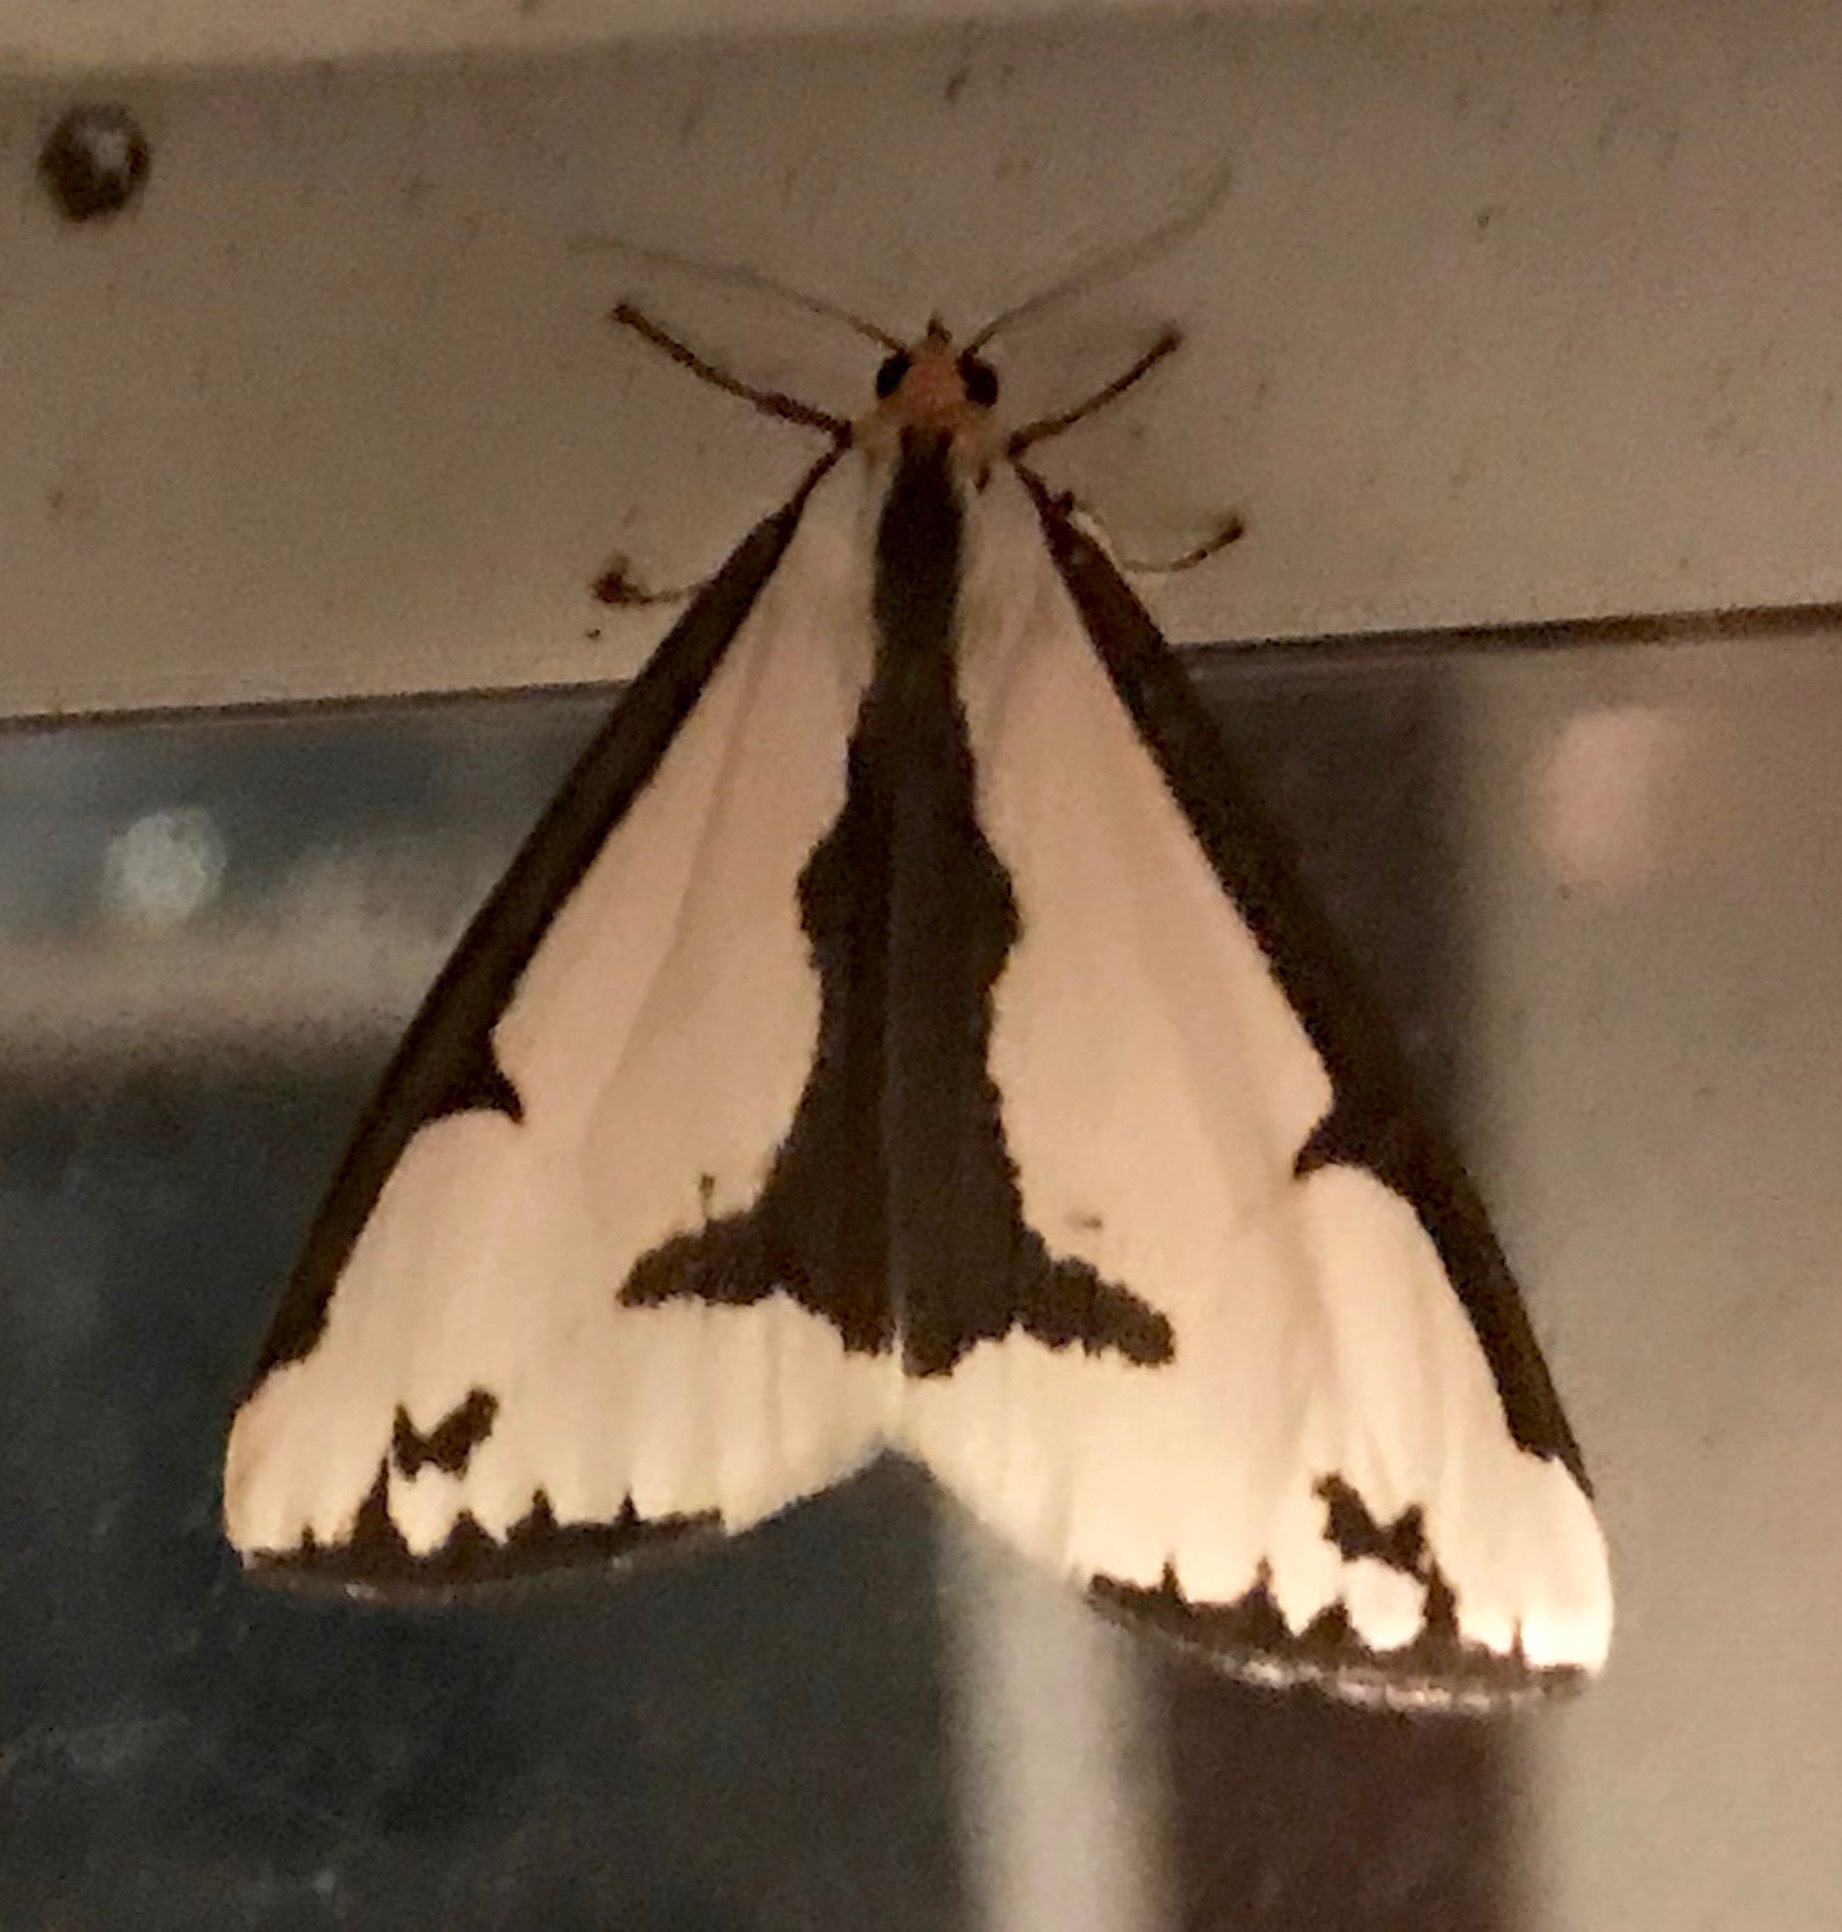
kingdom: Animalia
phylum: Arthropoda
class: Insecta
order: Lepidoptera
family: Erebidae
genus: Haploa
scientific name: Haploa lecontei
